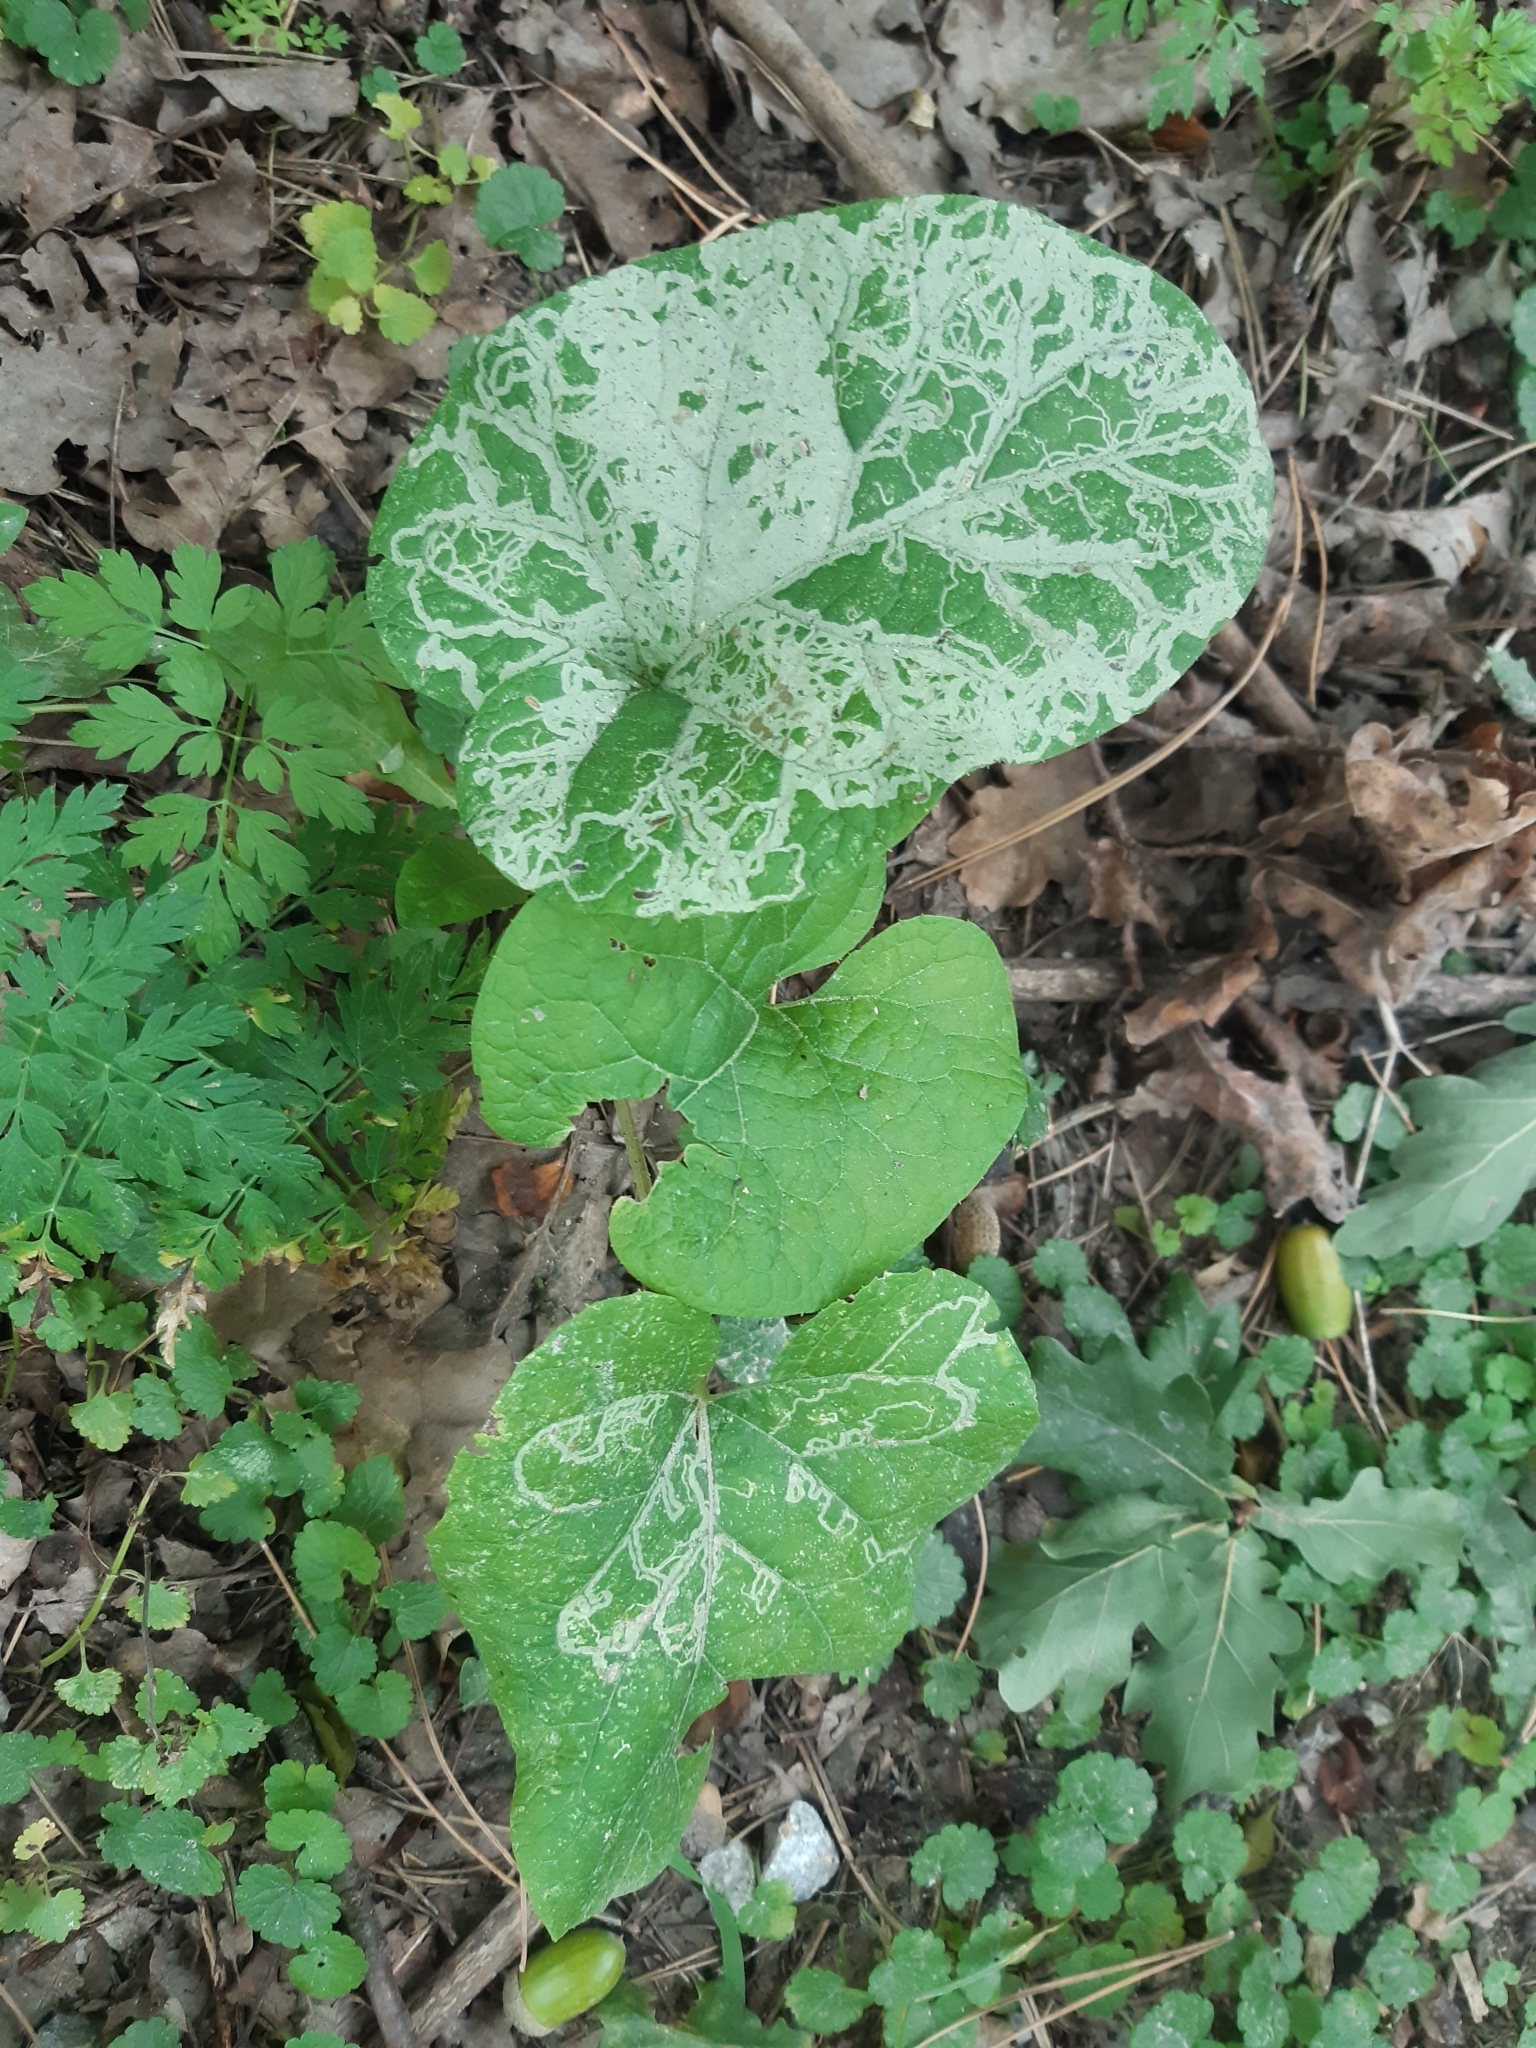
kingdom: Animalia
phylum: Arthropoda
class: Insecta
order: Diptera
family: Agromyzidae
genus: Phytomyza
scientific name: Phytomyza lappae
